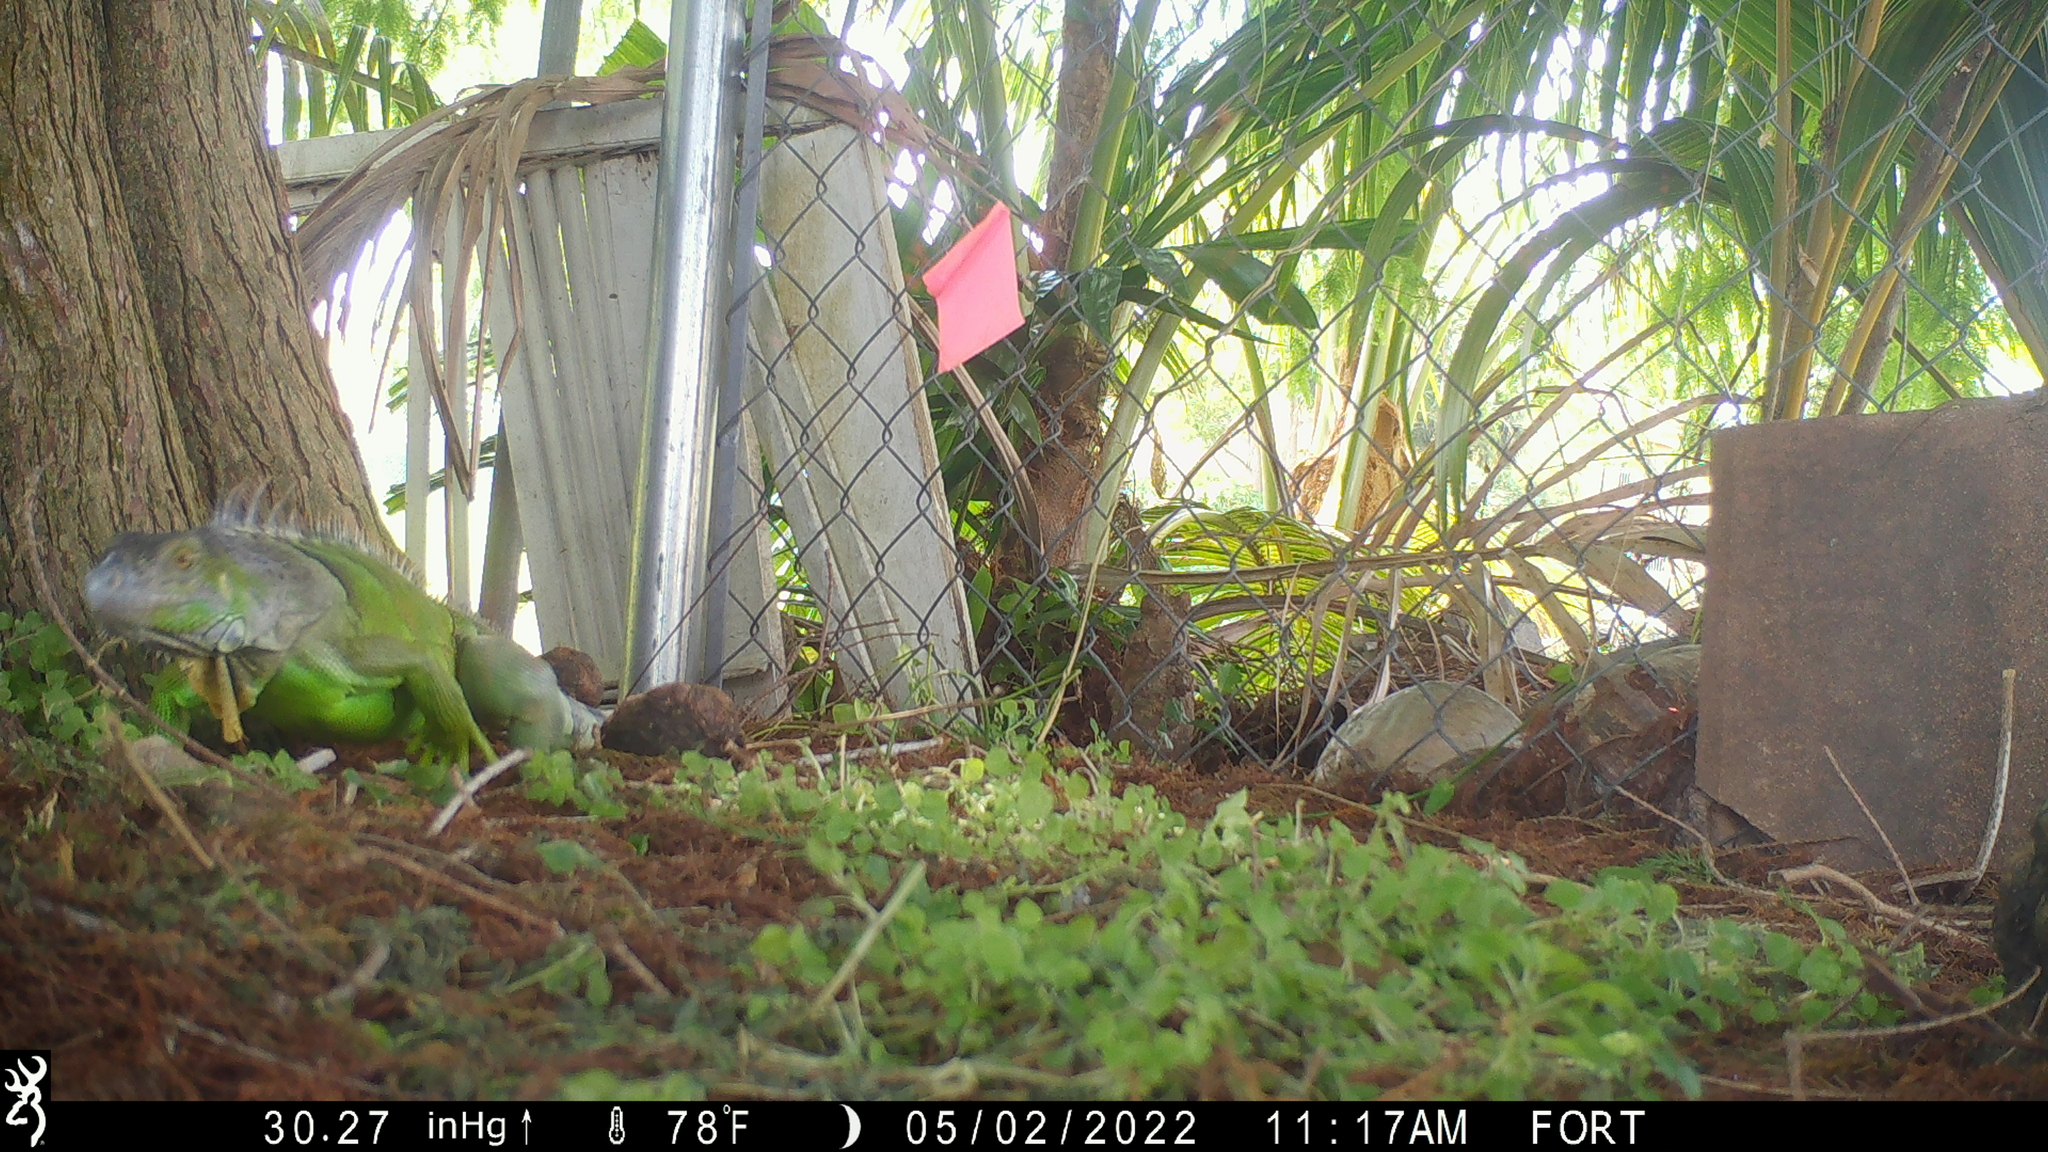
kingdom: Animalia
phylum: Chordata
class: Squamata
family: Iguanidae
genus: Iguana
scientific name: Iguana iguana
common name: Green iguana
